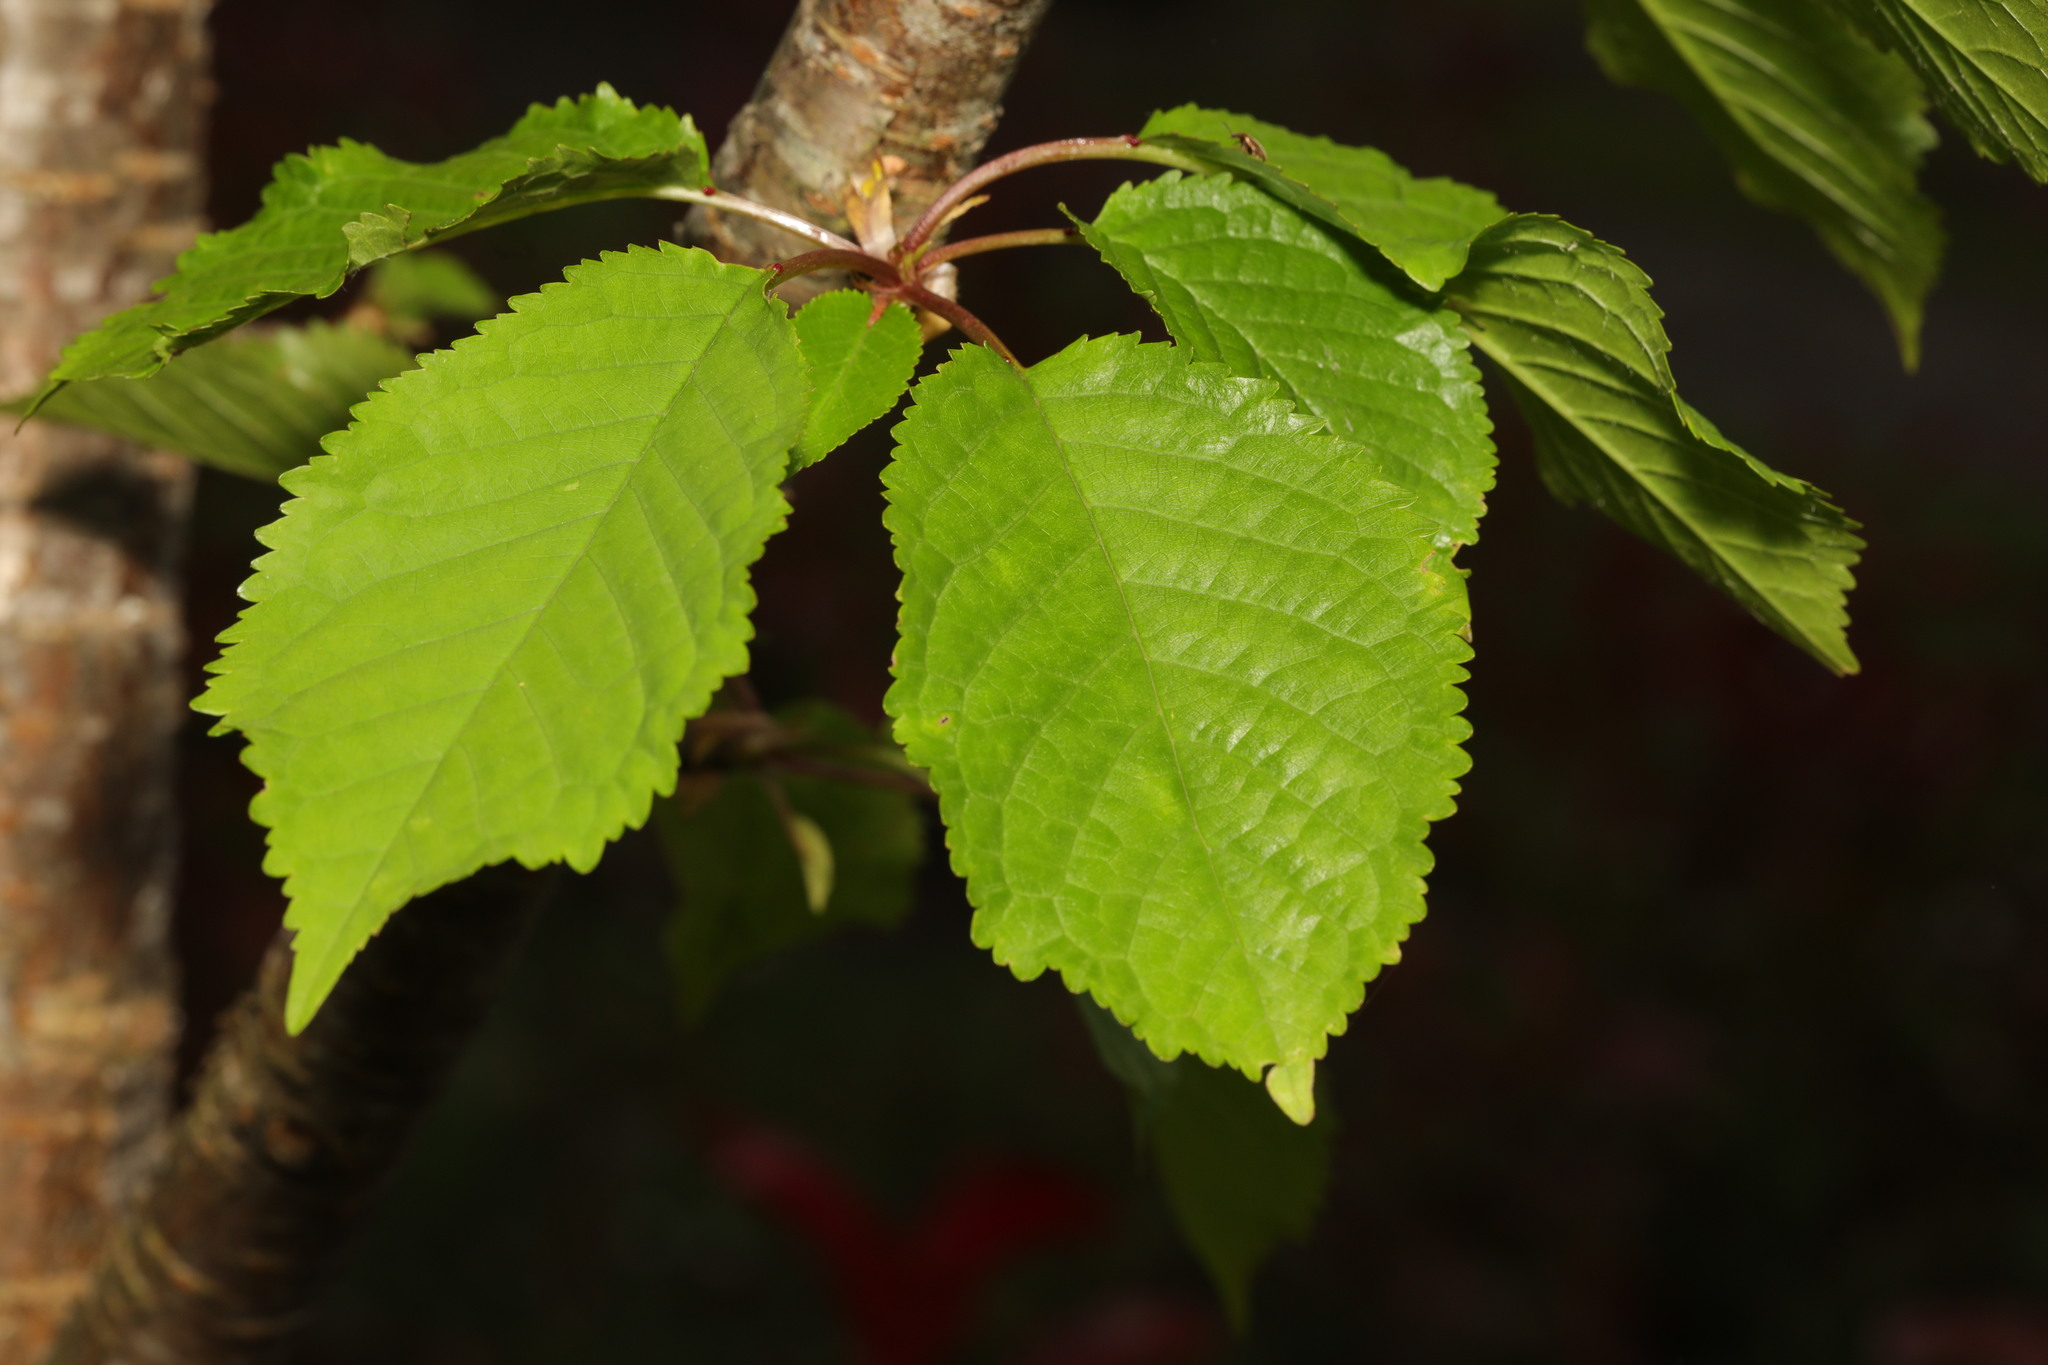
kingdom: Plantae
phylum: Tracheophyta
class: Magnoliopsida
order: Rosales
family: Rosaceae
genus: Prunus
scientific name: Prunus avium
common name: Sweet cherry
